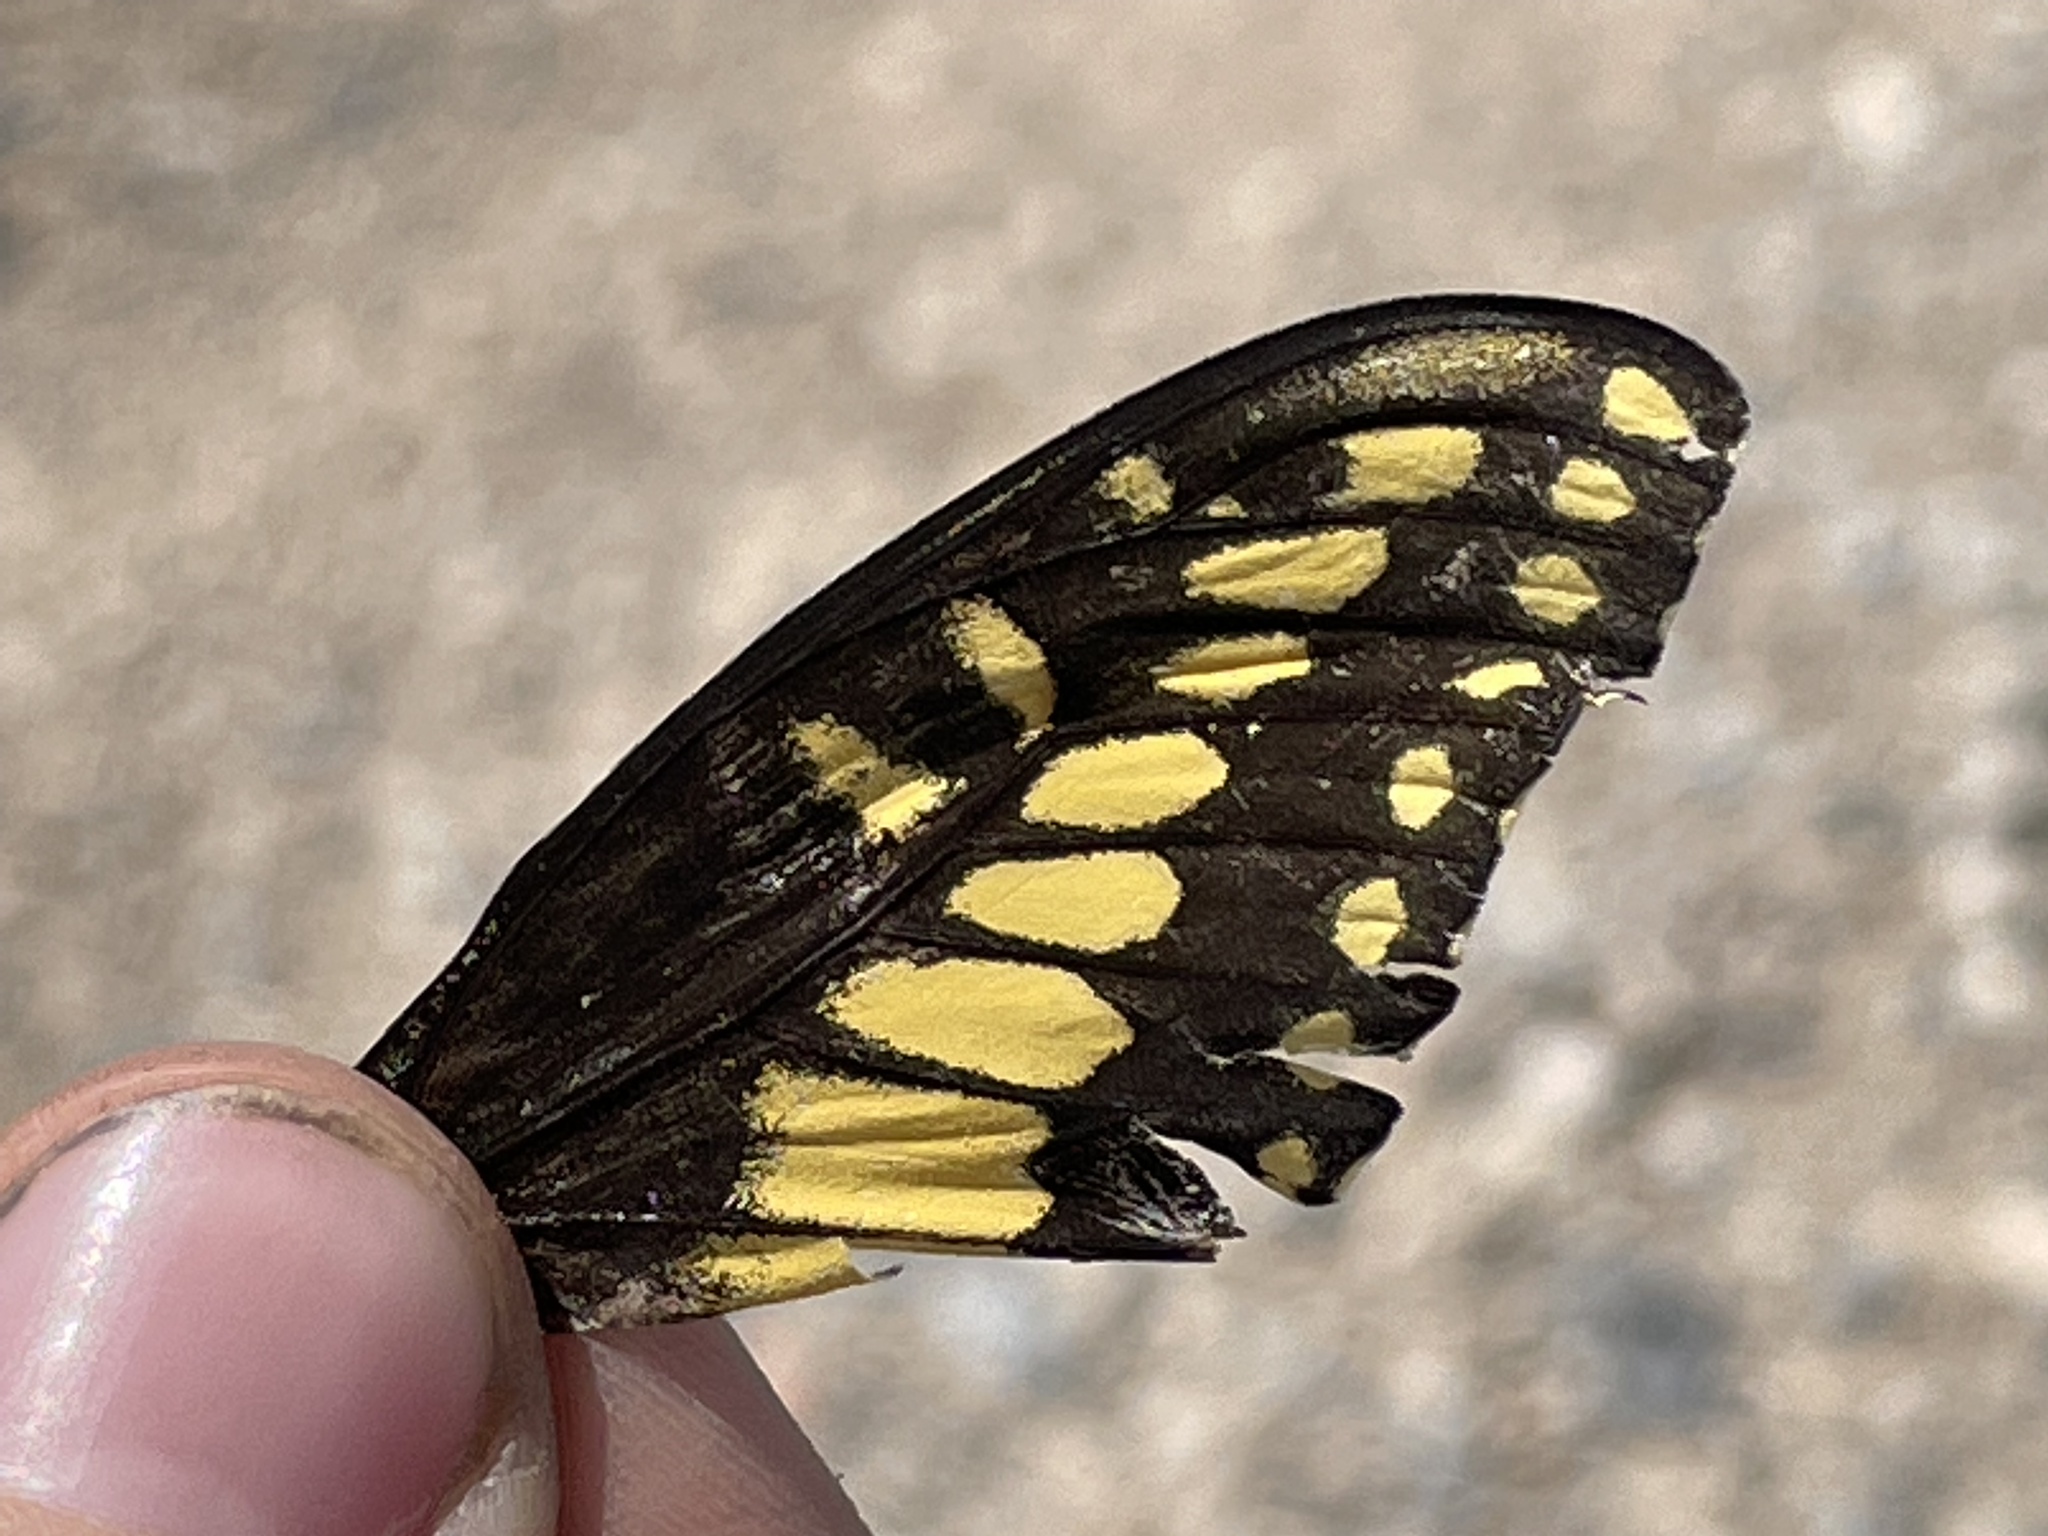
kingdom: Animalia
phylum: Arthropoda
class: Insecta
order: Lepidoptera
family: Papilionidae
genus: Papilio
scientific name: Papilio polyxenes
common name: Black swallowtail
